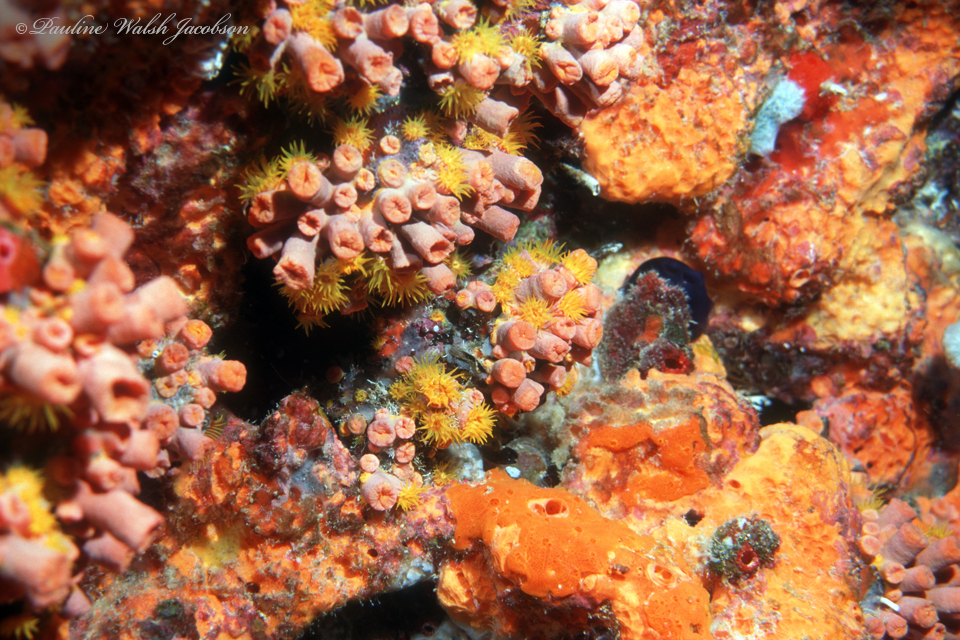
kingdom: Animalia
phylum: Cnidaria
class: Anthozoa
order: Scleractinia
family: Dendrophylliidae
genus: Tubastraea
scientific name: Tubastraea tagusensis
